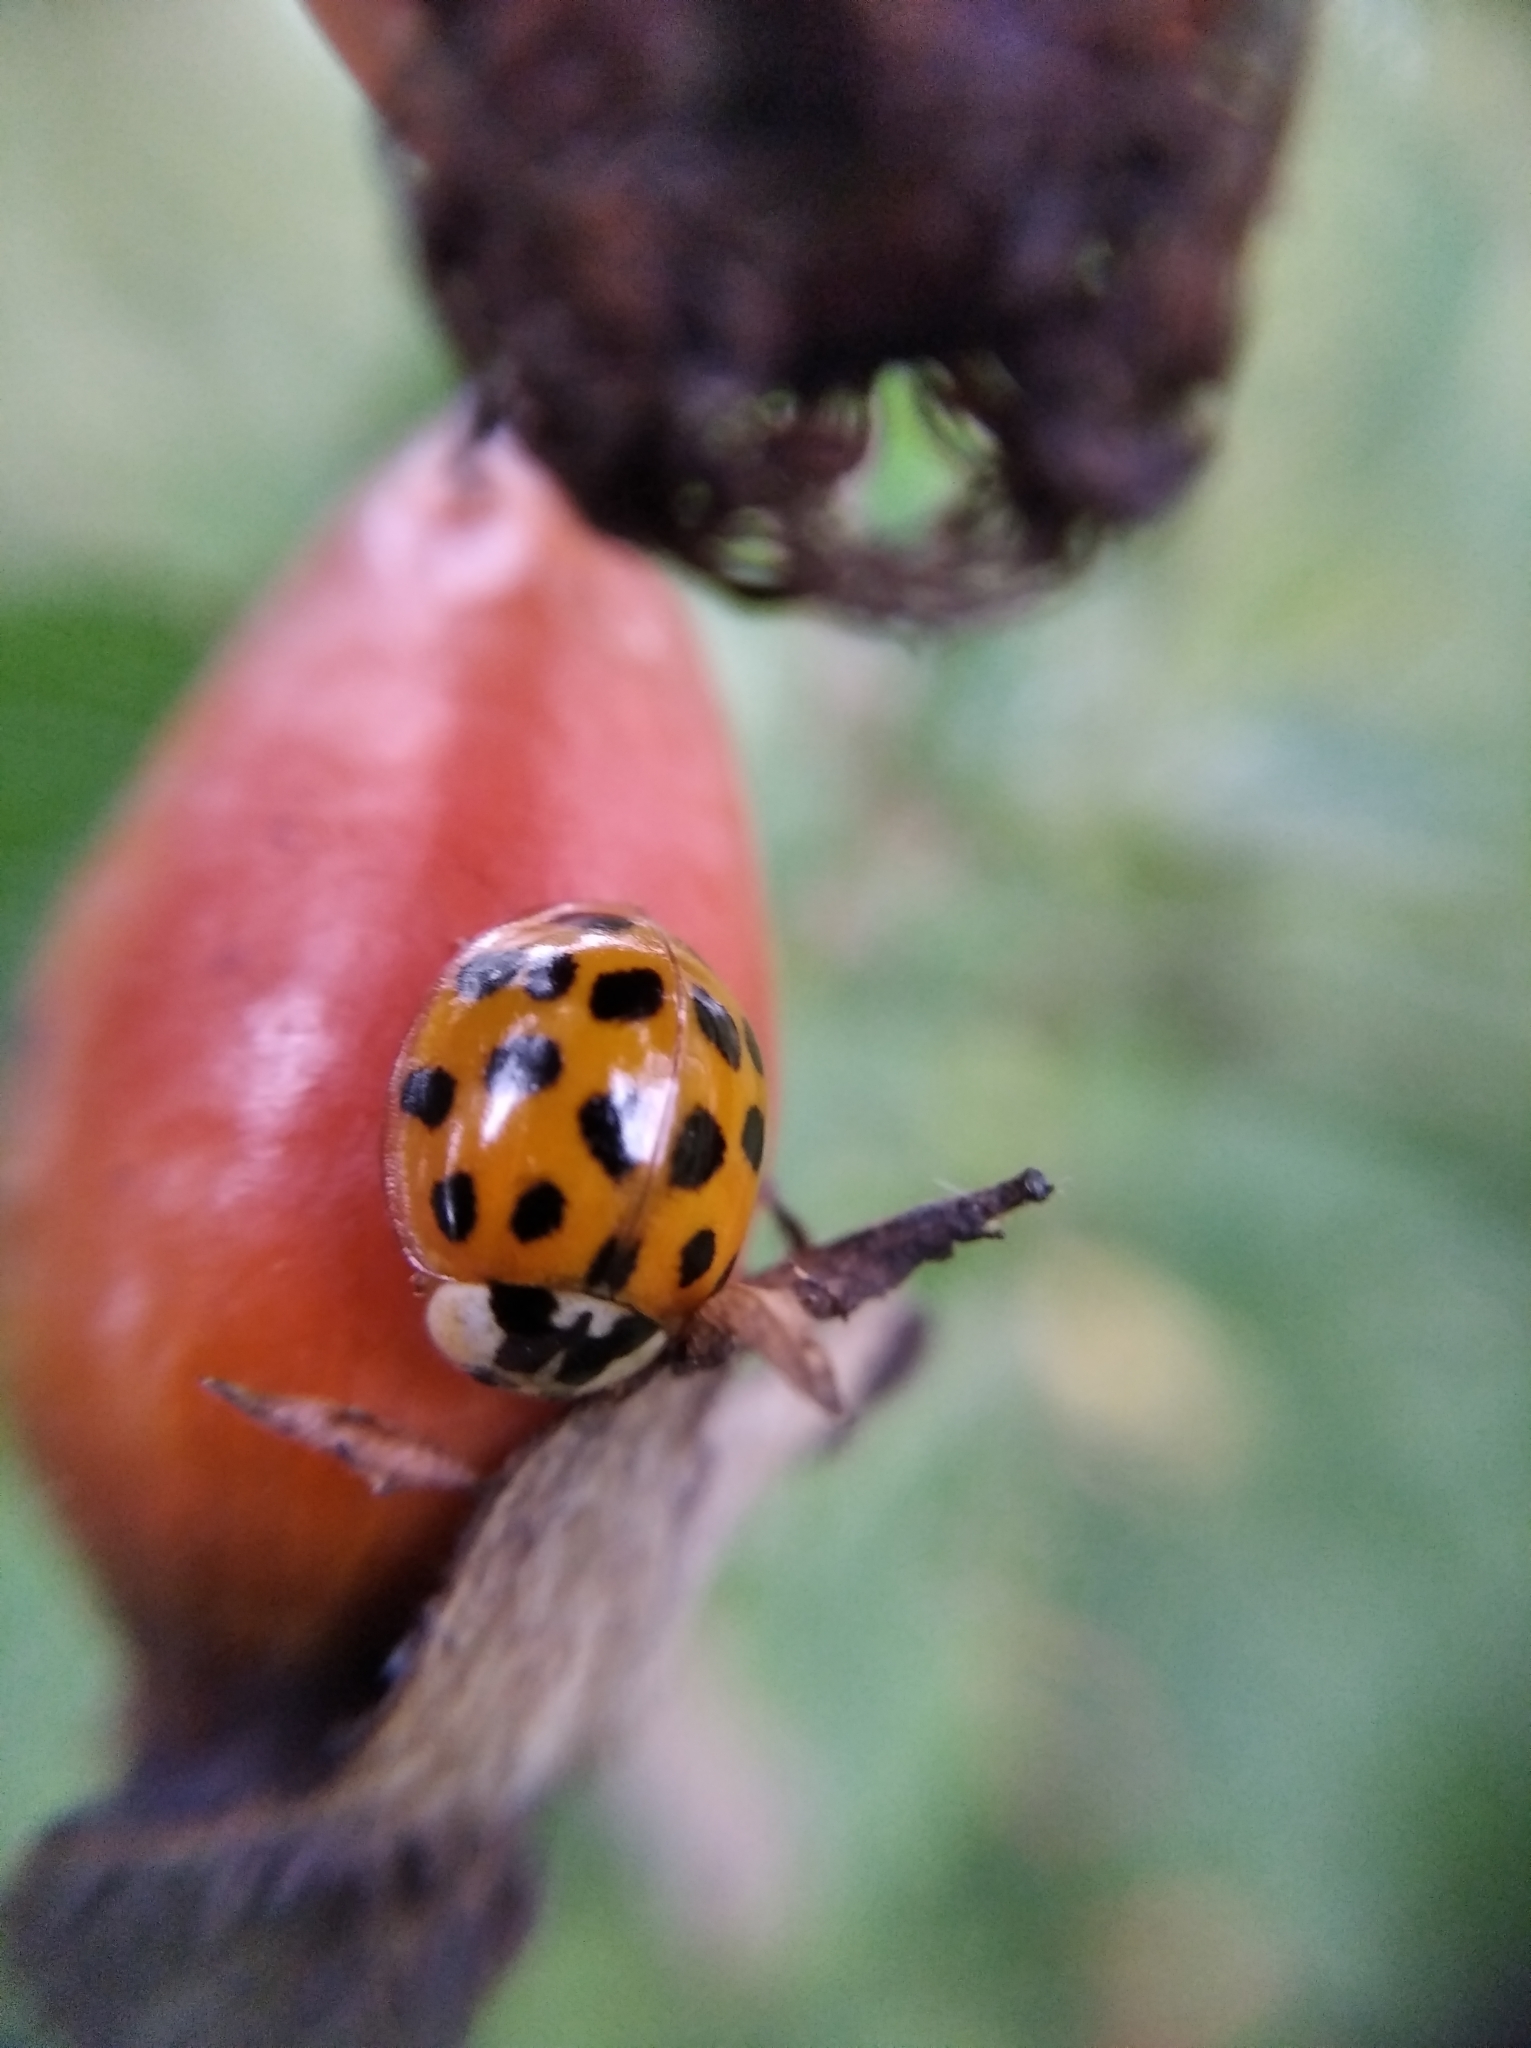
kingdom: Animalia
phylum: Arthropoda
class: Insecta
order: Coleoptera
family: Coccinellidae
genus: Harmonia
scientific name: Harmonia axyridis
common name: Harlequin ladybird
